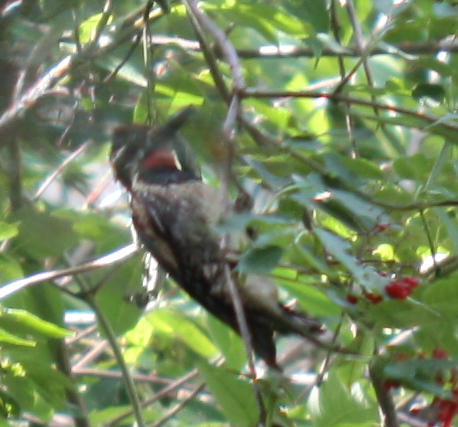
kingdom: Animalia
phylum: Chordata
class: Aves
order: Piciformes
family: Picidae
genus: Sphyrapicus
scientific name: Sphyrapicus varius
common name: Yellow-bellied sapsucker
